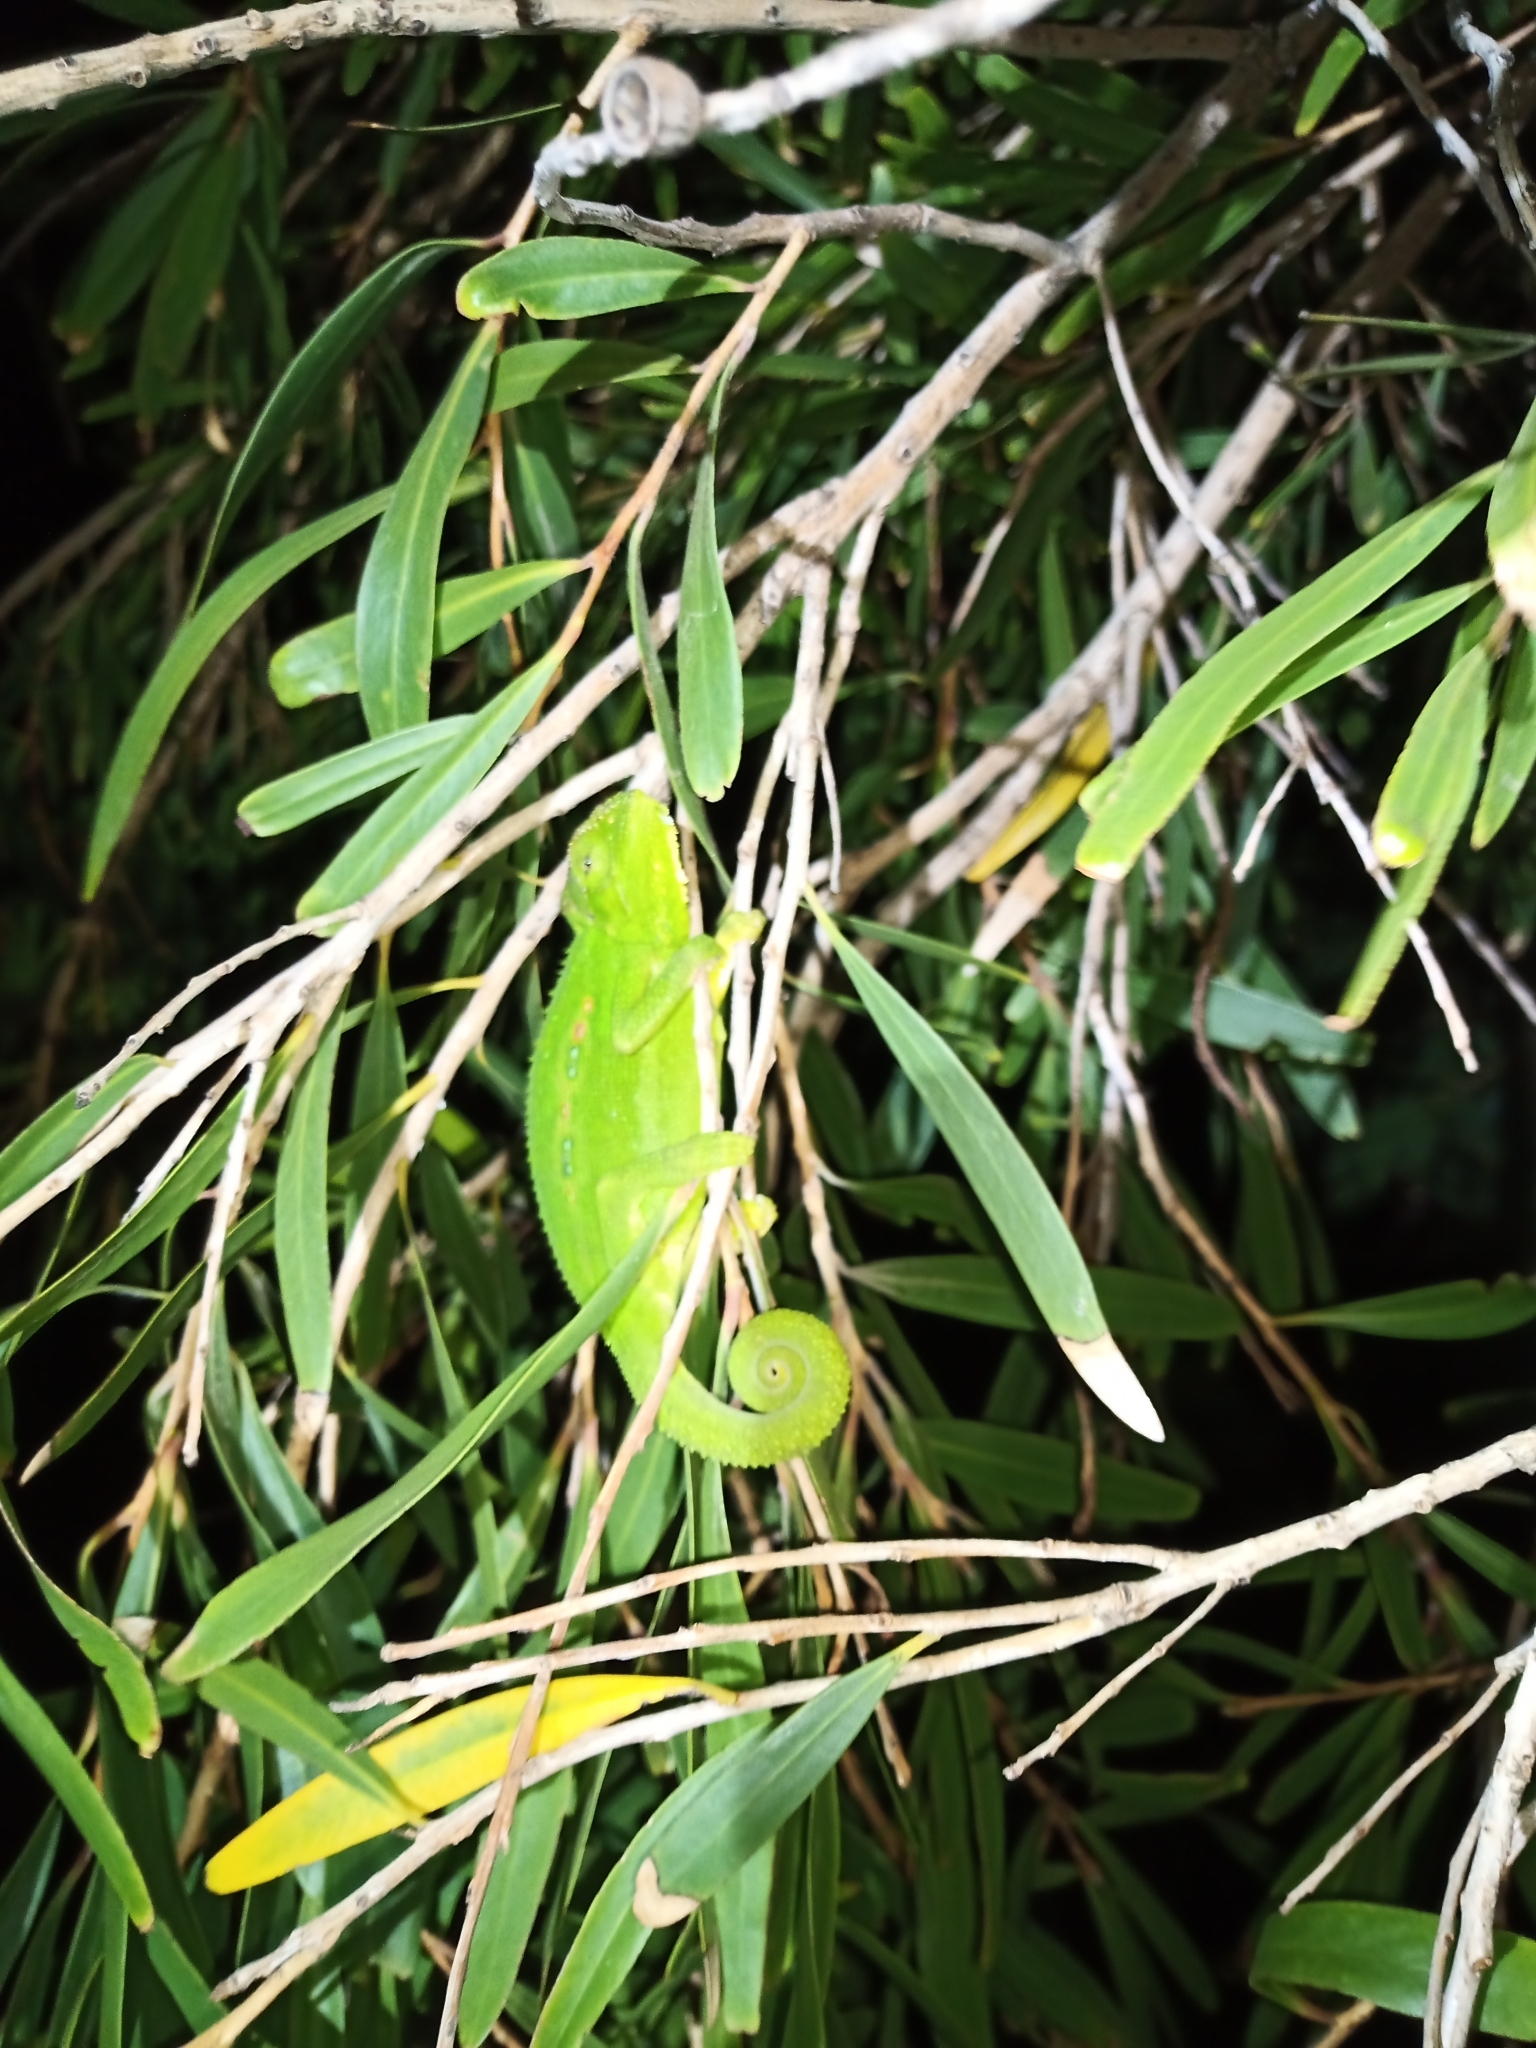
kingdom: Animalia
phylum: Chordata
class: Squamata
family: Chamaeleonidae
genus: Bradypodion
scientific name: Bradypodion pumilum
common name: Cape dwarf chameleon
